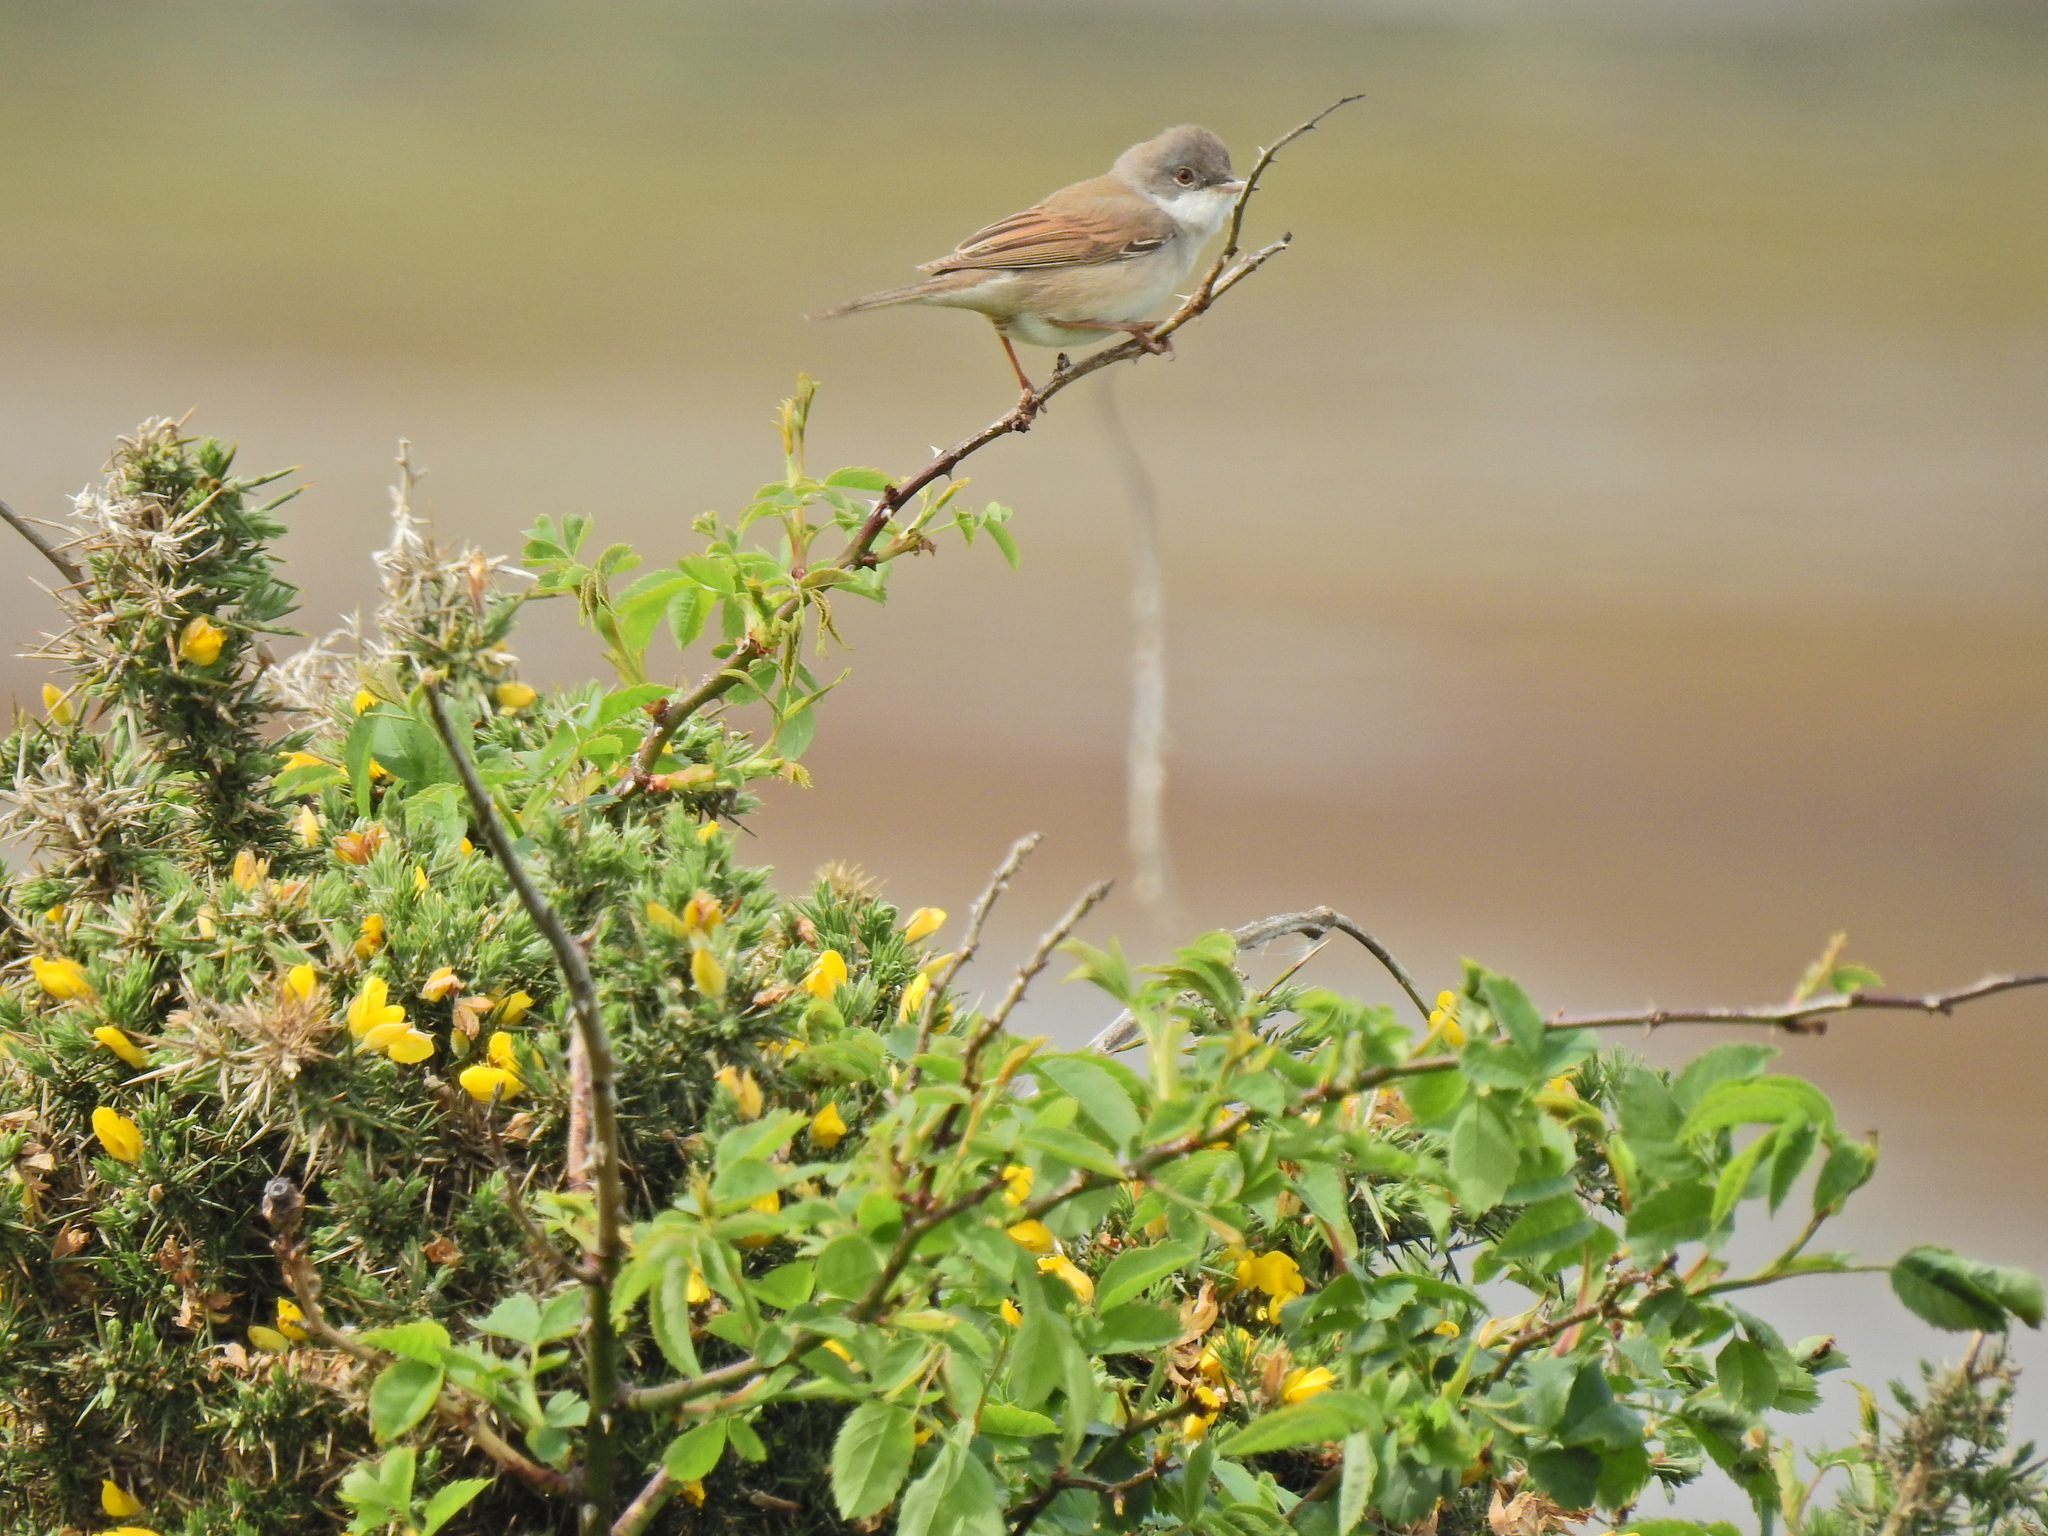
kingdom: Animalia
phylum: Chordata
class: Aves
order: Passeriformes
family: Sylviidae
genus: Sylvia
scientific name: Sylvia communis
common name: Common whitethroat
